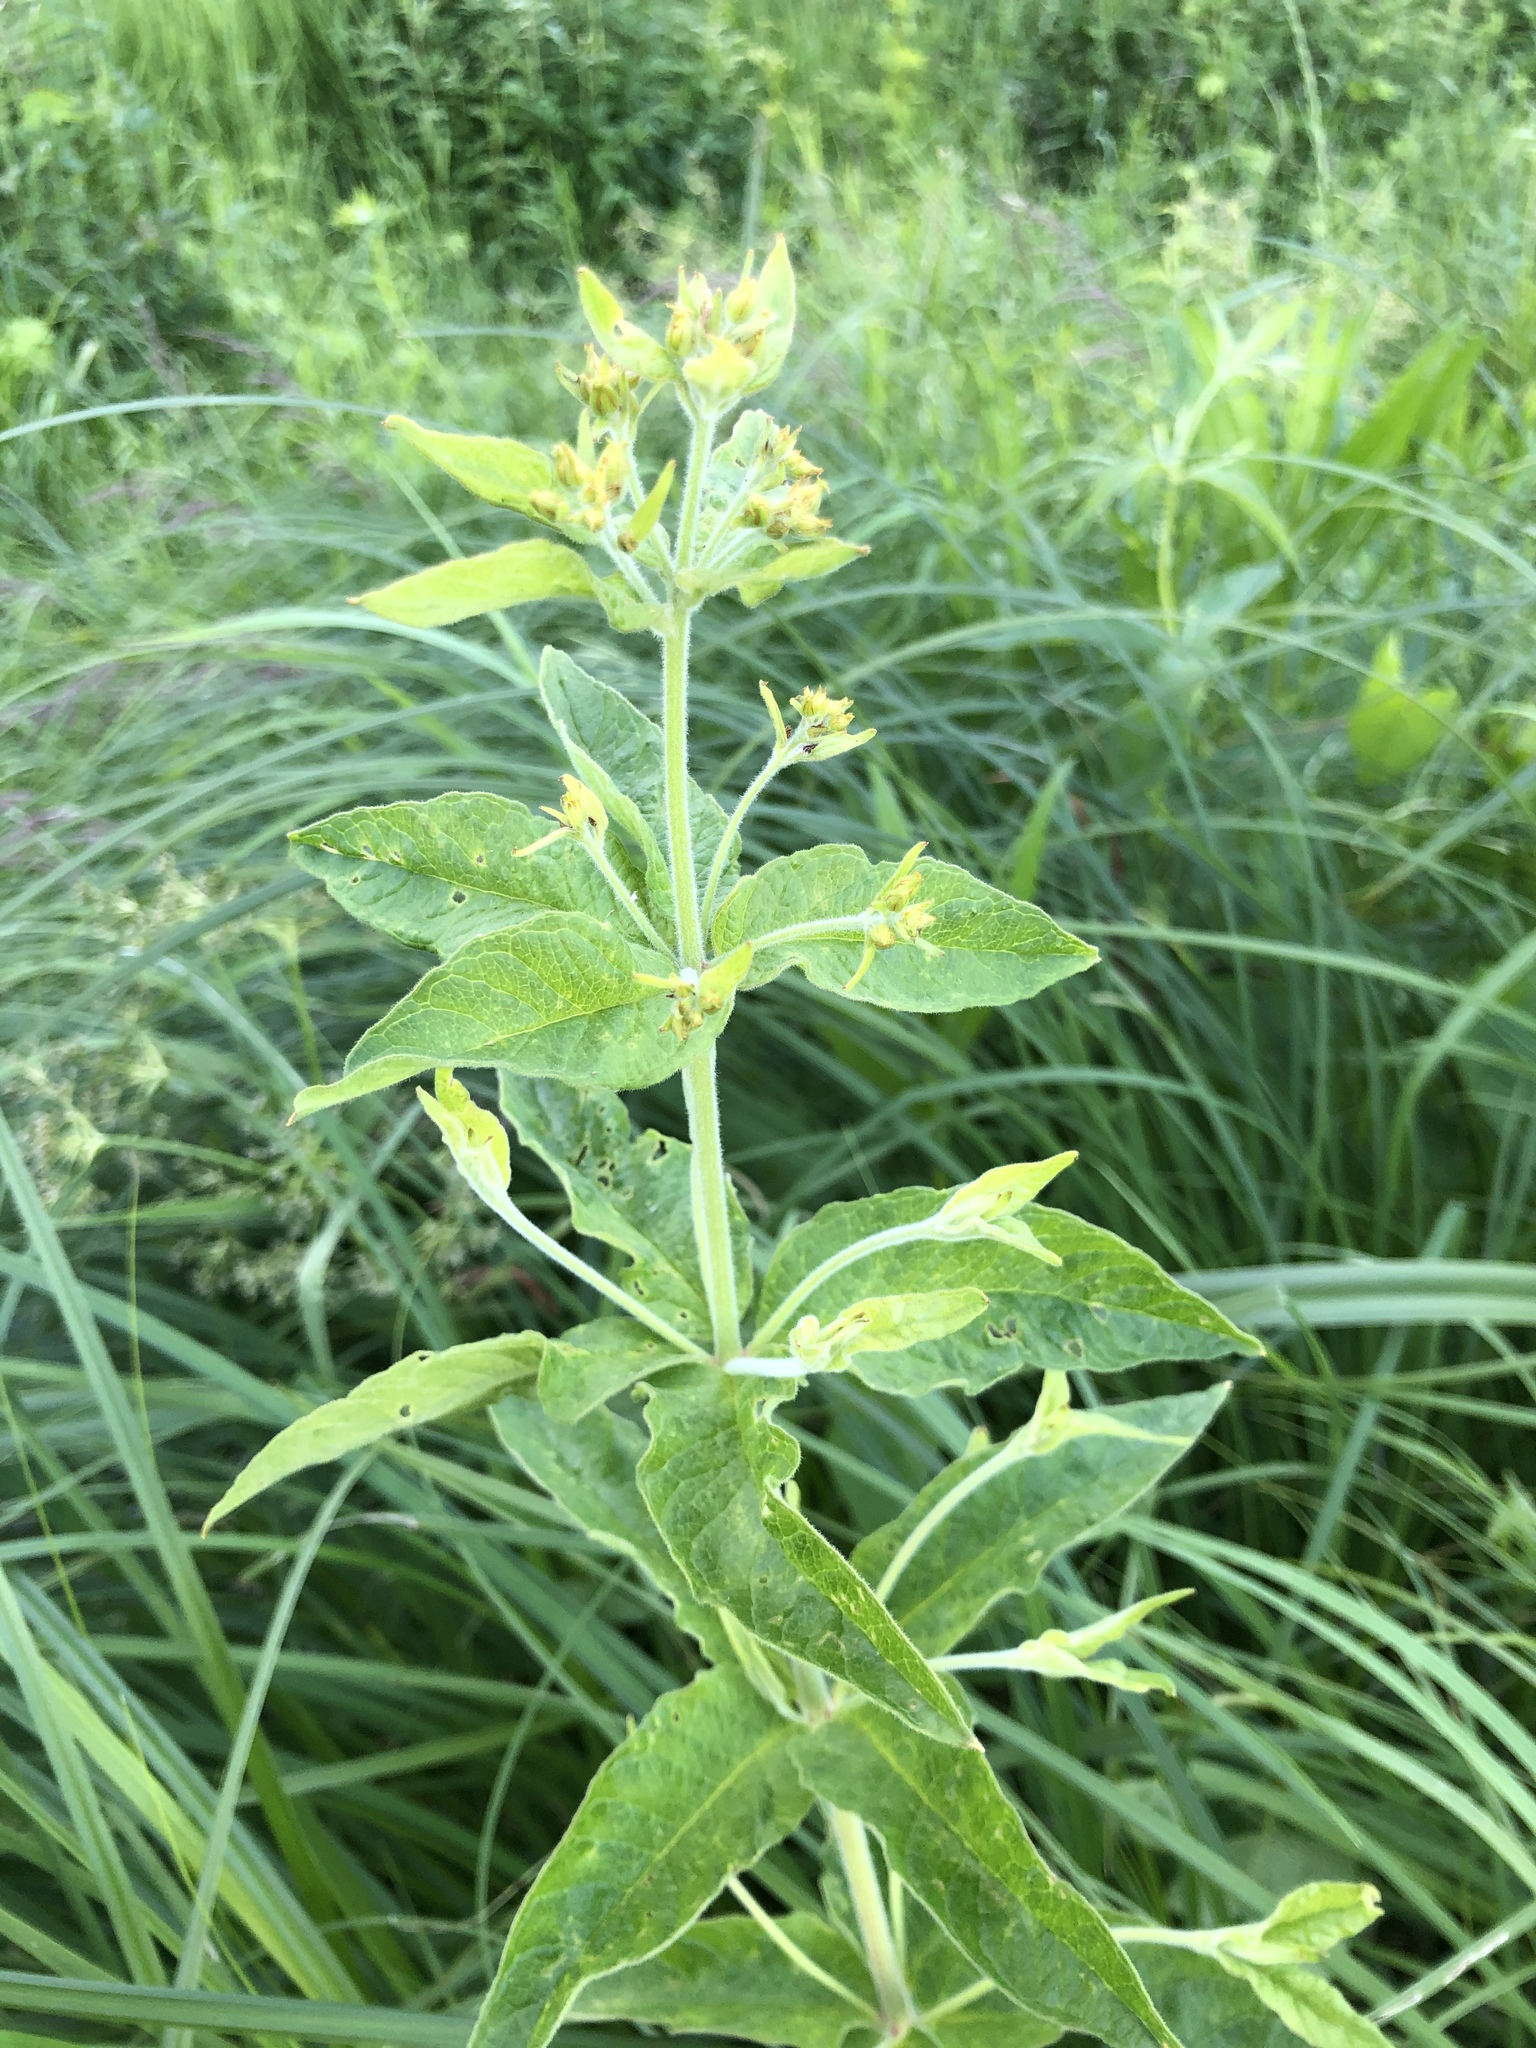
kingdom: Plantae
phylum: Tracheophyta
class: Magnoliopsida
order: Ericales
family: Primulaceae
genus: Lysimachia
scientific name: Lysimachia vulgaris
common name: Yellow loosestrife
